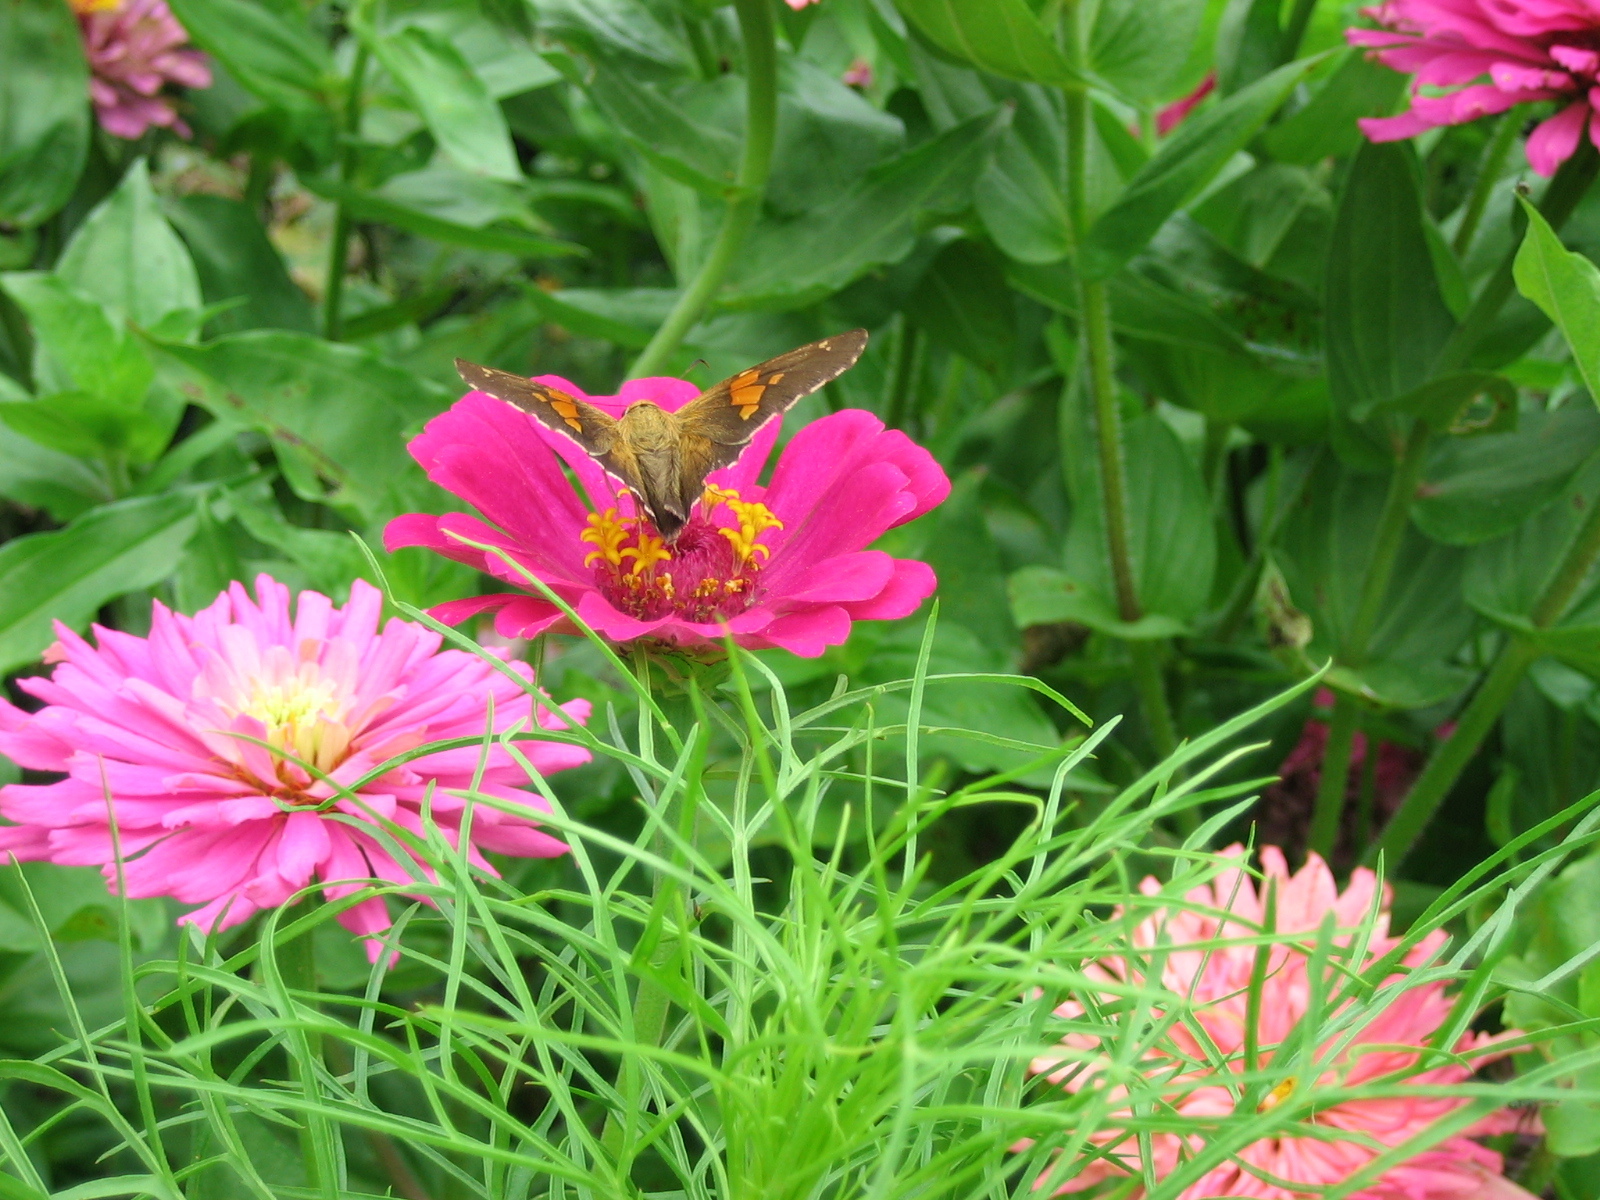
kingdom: Animalia
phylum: Arthropoda
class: Insecta
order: Lepidoptera
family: Hesperiidae
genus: Epargyreus
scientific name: Epargyreus clarus
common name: Silver-spotted skipper
